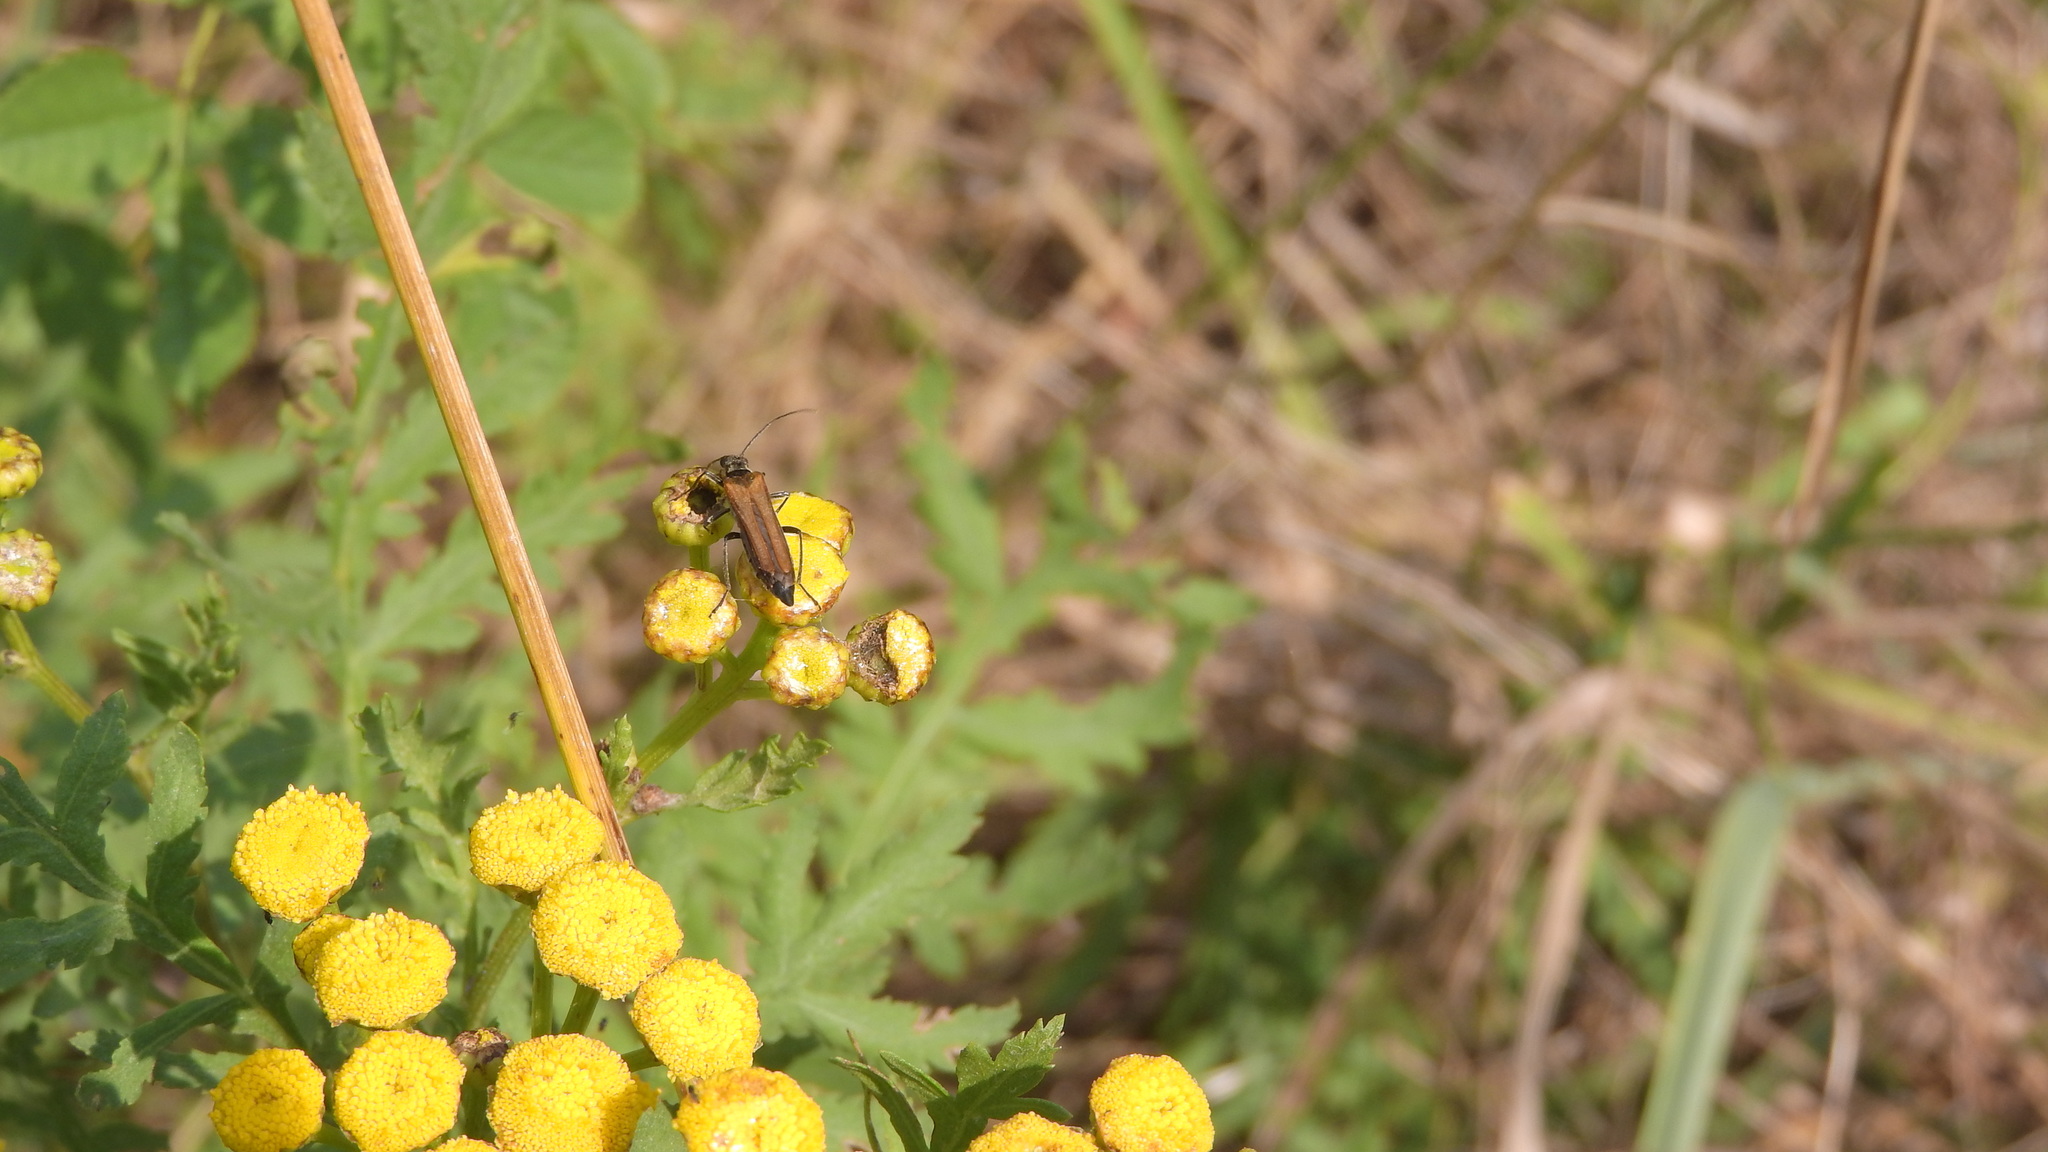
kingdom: Animalia
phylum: Arthropoda
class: Insecta
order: Coleoptera
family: Oedemeridae
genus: Oedemera
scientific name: Oedemera femorata
